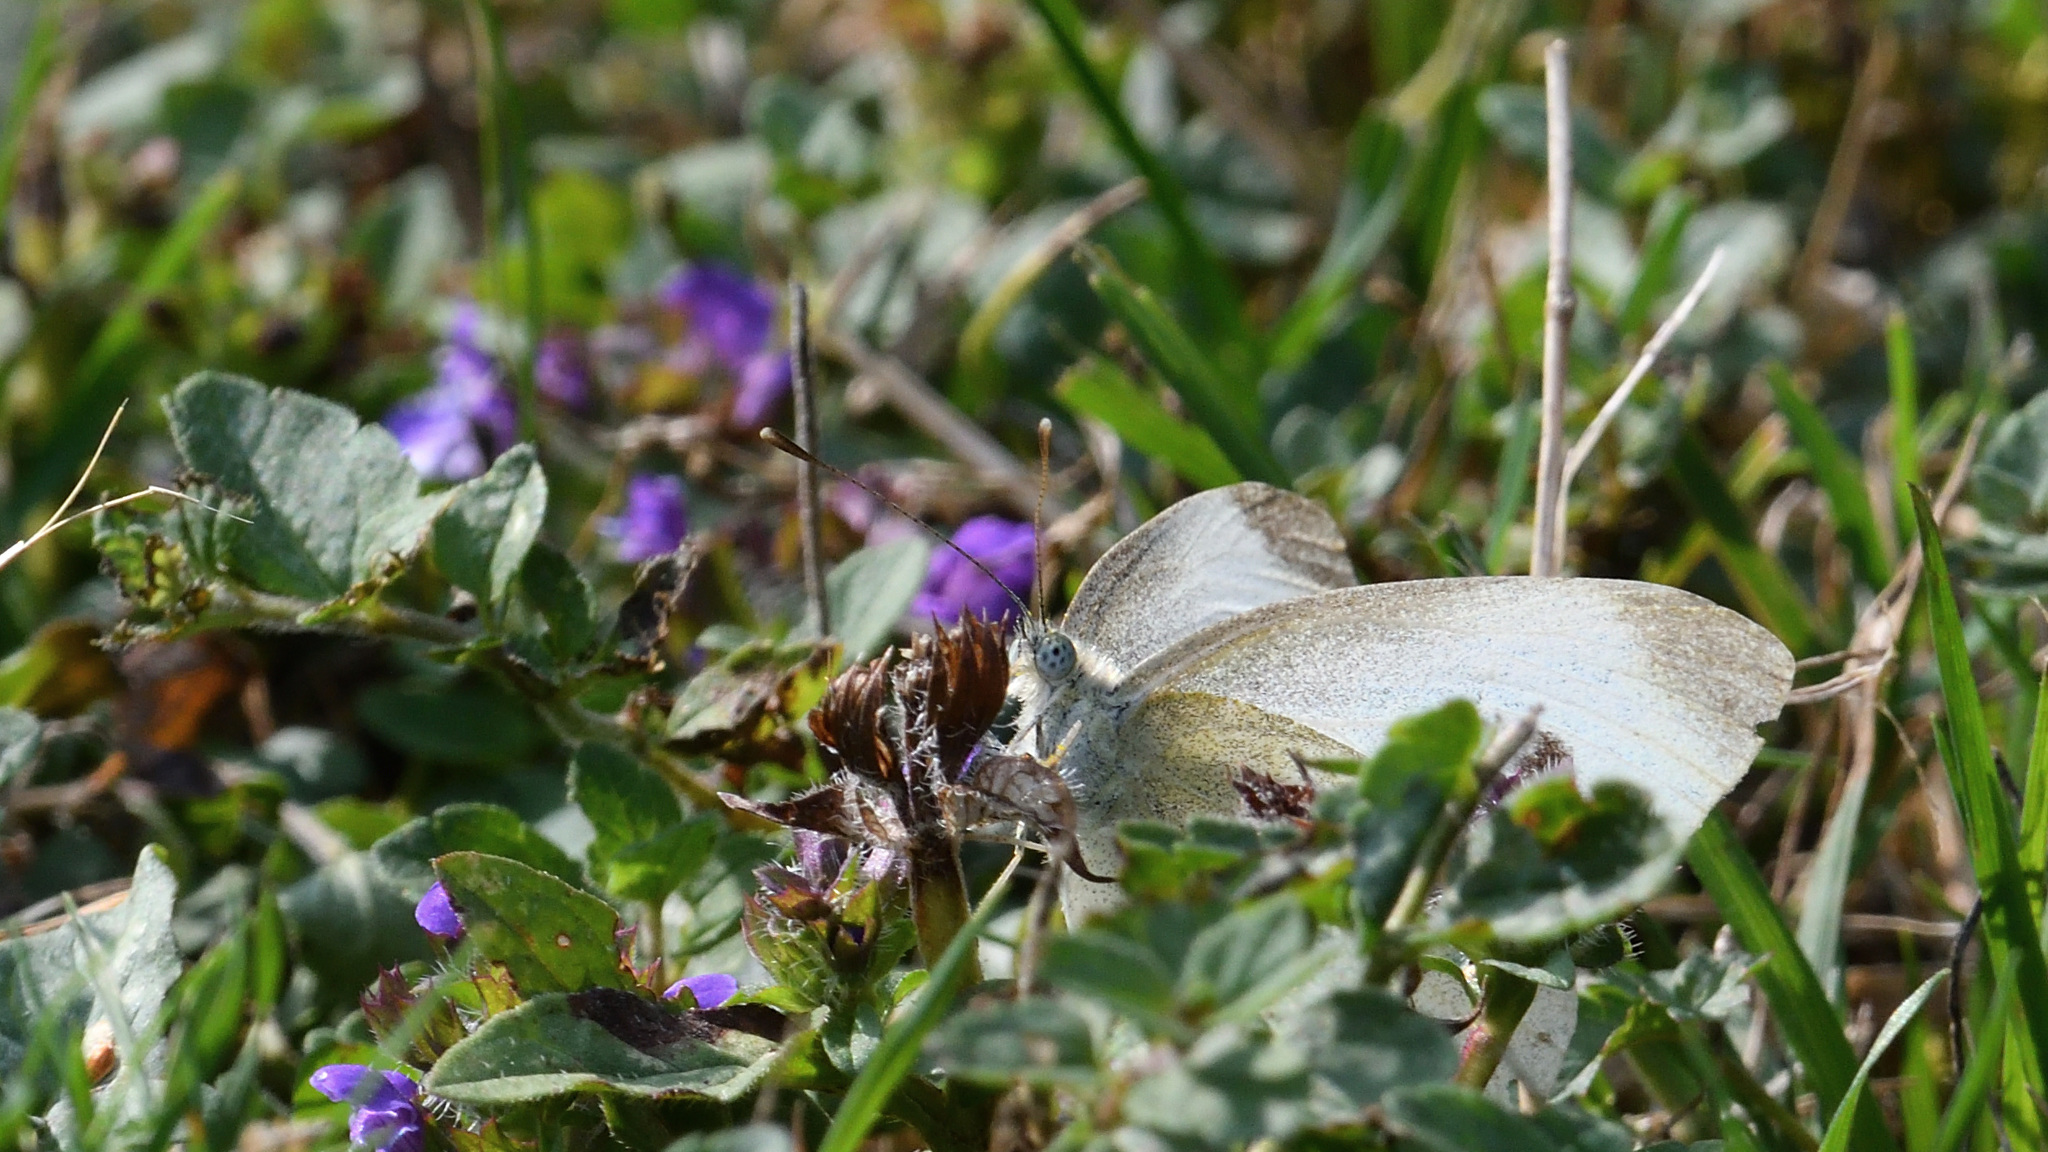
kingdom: Animalia
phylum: Arthropoda
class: Insecta
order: Lepidoptera
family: Pieridae
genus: Pieris
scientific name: Pieris rapae
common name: Small white
